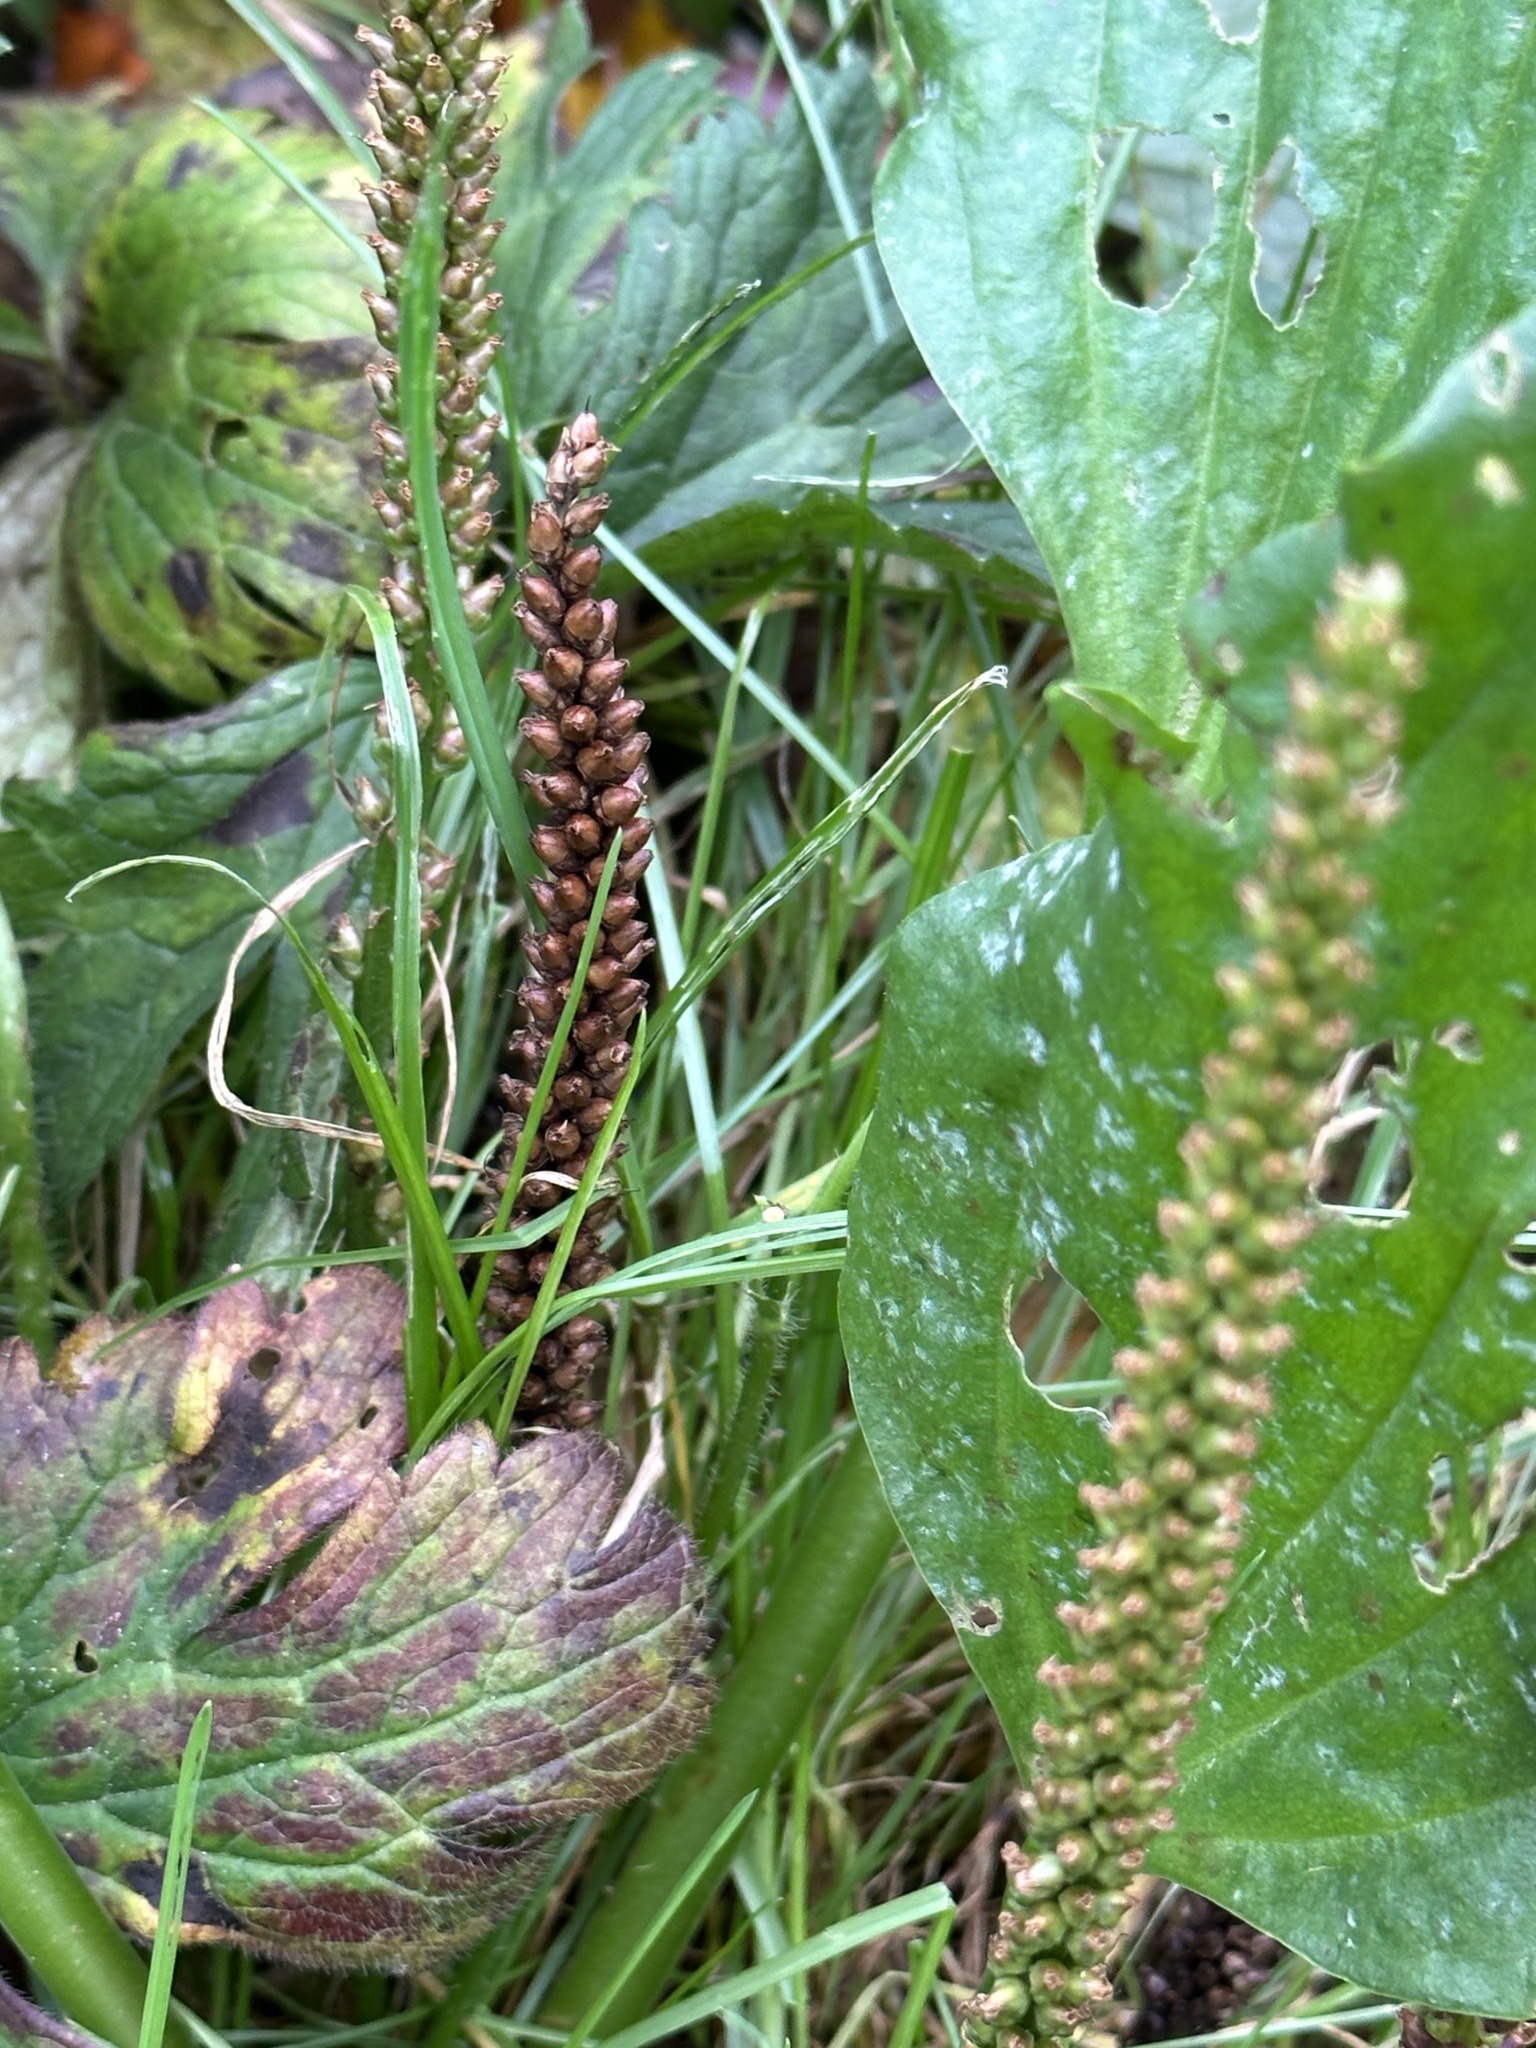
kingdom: Plantae
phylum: Tracheophyta
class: Magnoliopsida
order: Lamiales
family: Plantaginaceae
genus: Plantago
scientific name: Plantago major
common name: Common plantain
